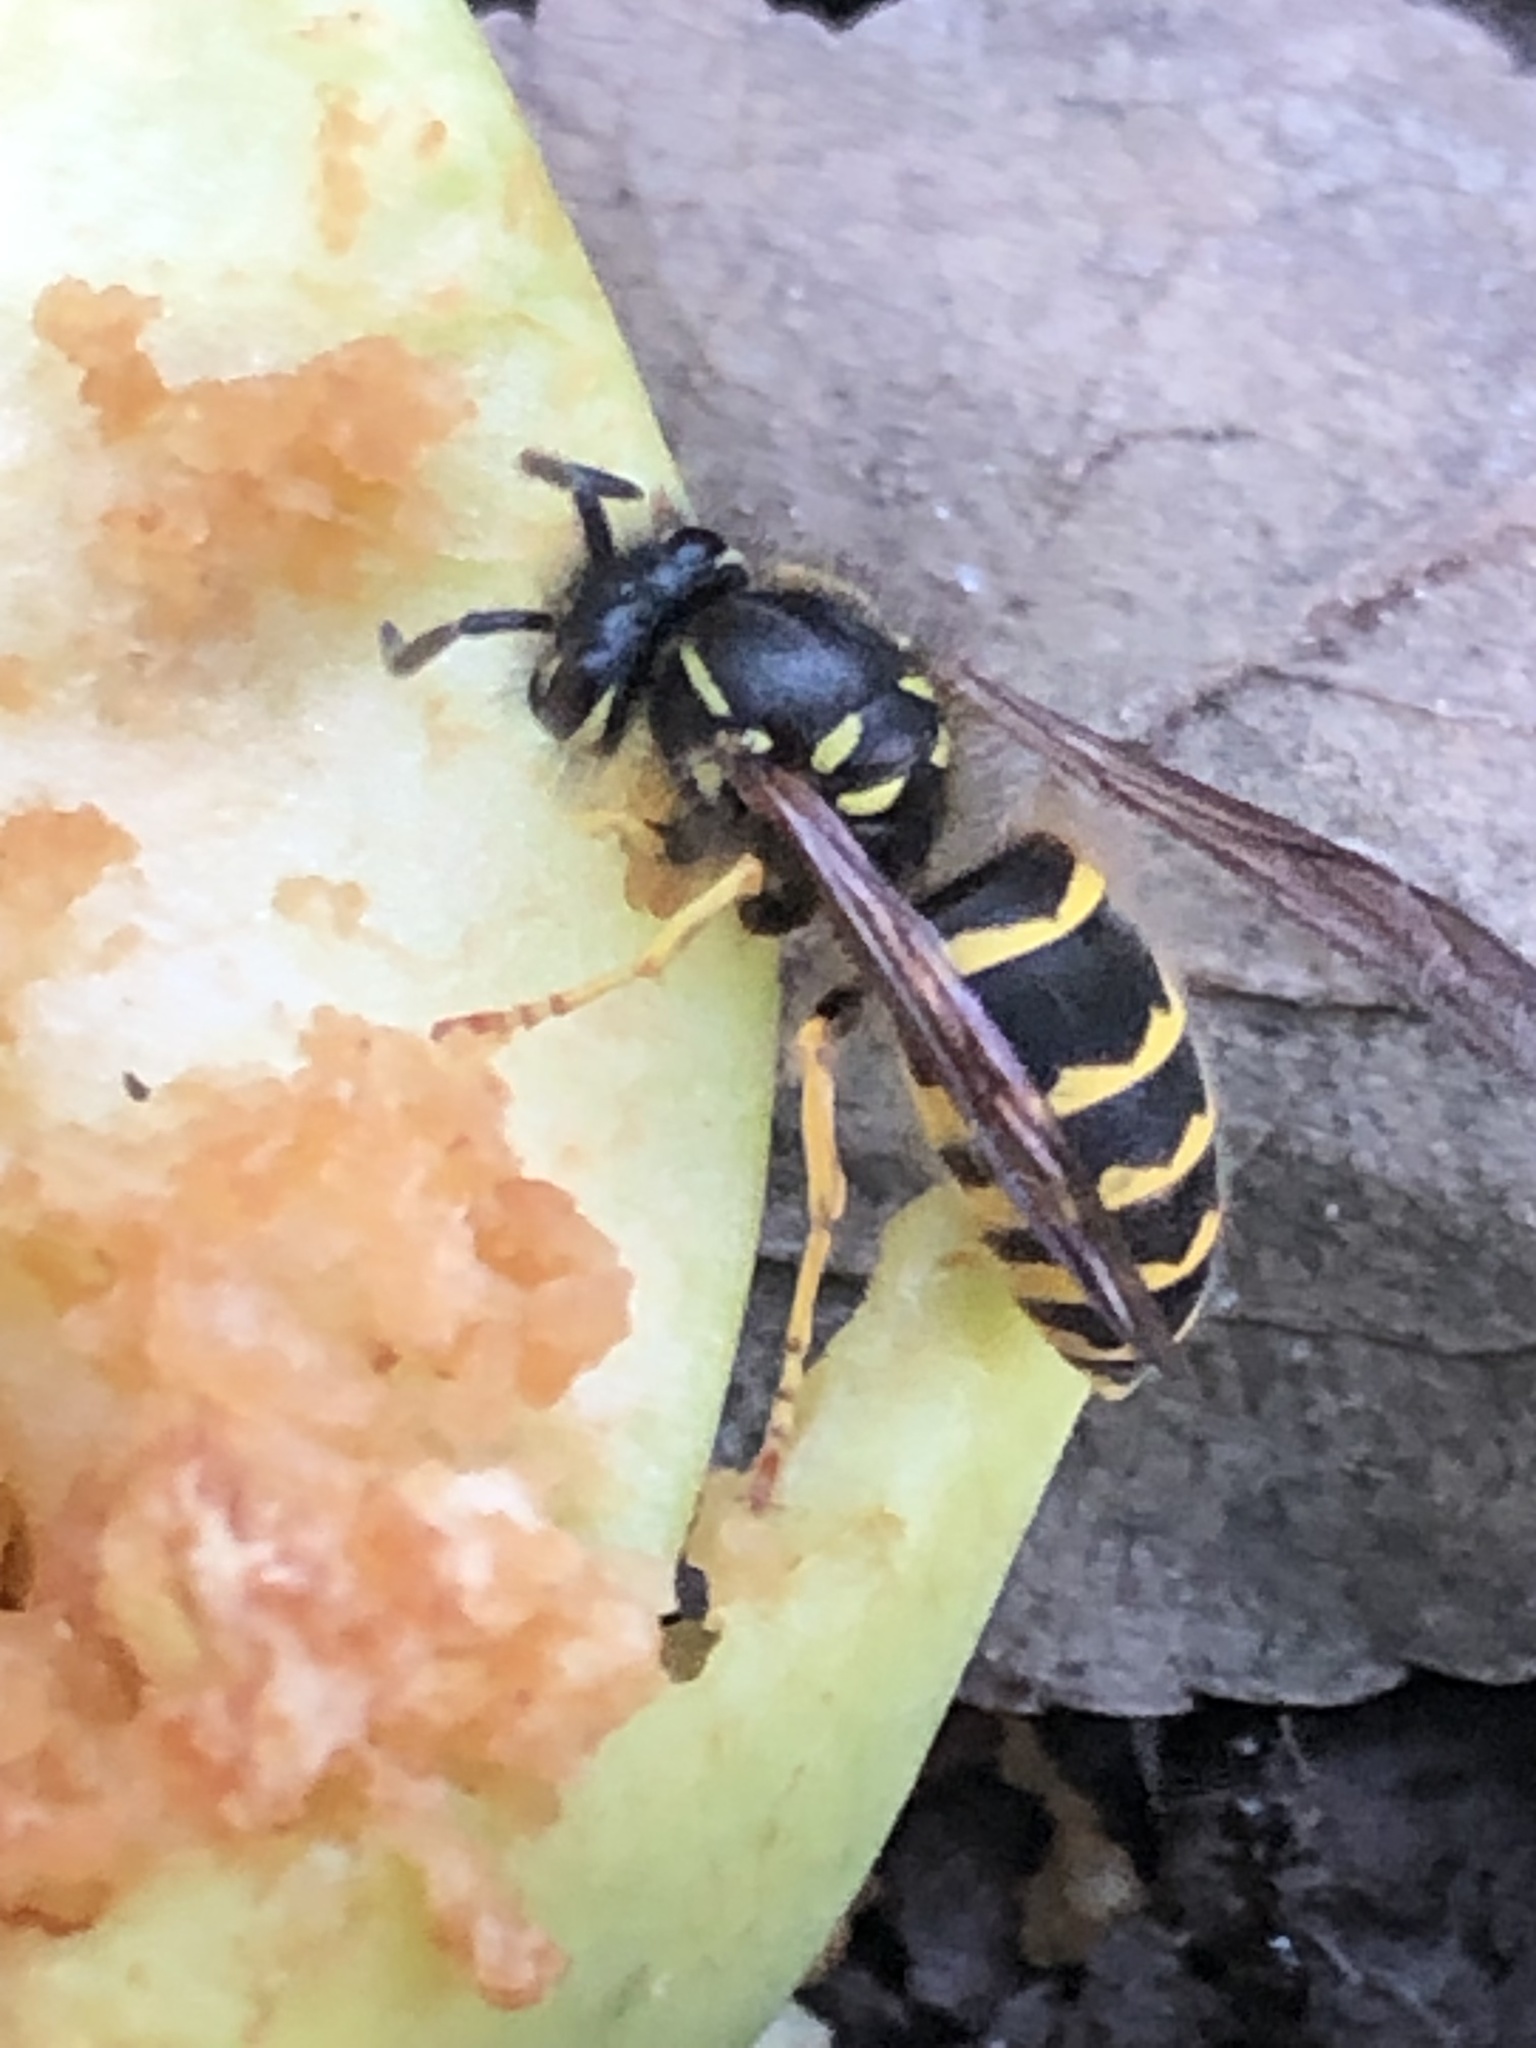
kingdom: Animalia
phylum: Arthropoda
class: Insecta
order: Hymenoptera
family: Vespidae
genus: Vespula
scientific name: Vespula alascensis
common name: Alaska yellowjacket
